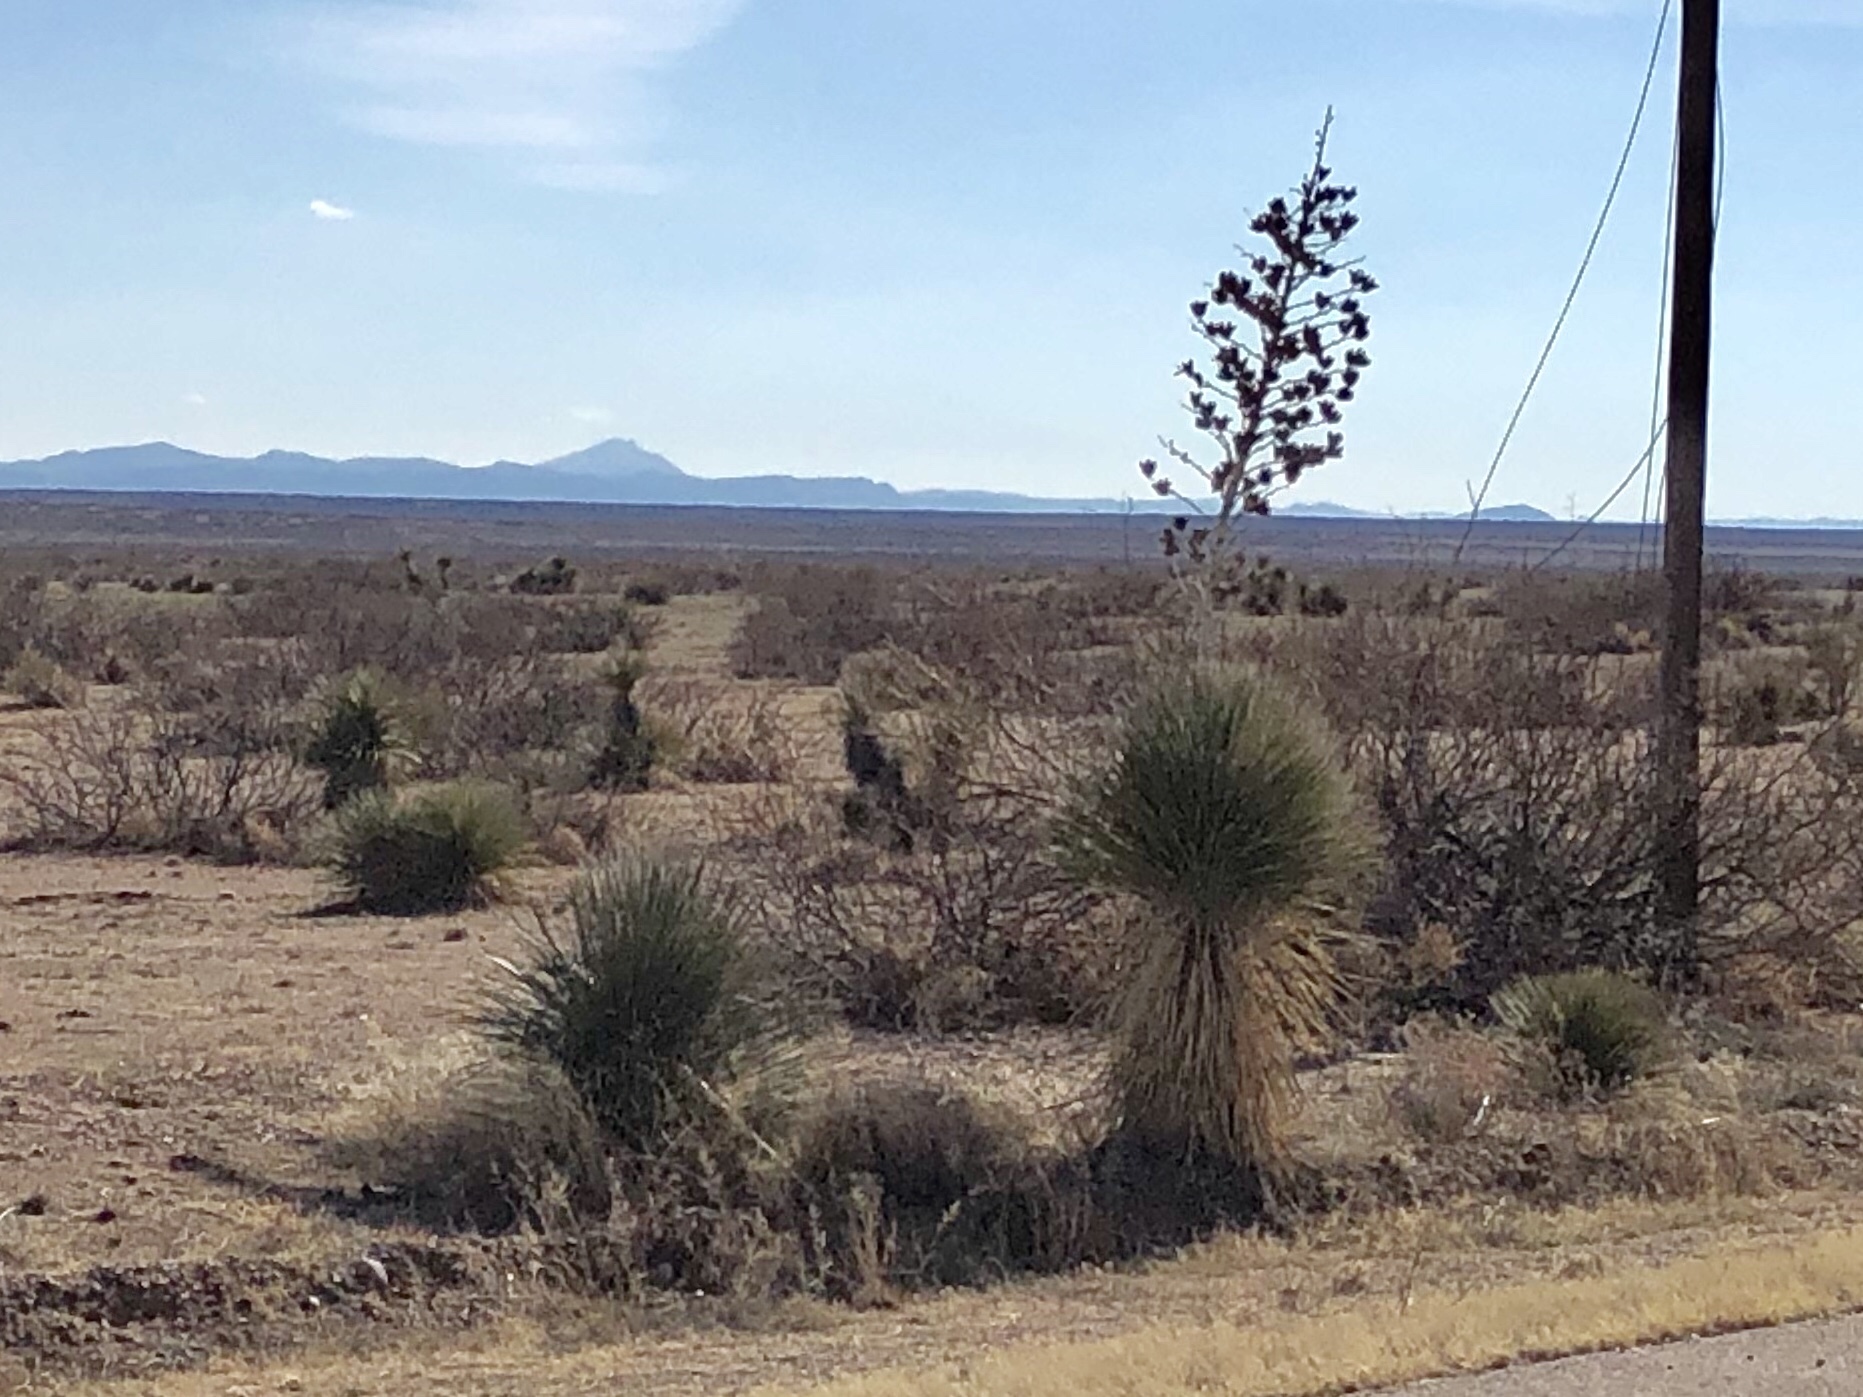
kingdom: Plantae
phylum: Tracheophyta
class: Liliopsida
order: Asparagales
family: Asparagaceae
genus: Yucca
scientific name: Yucca elata
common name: Palmella
